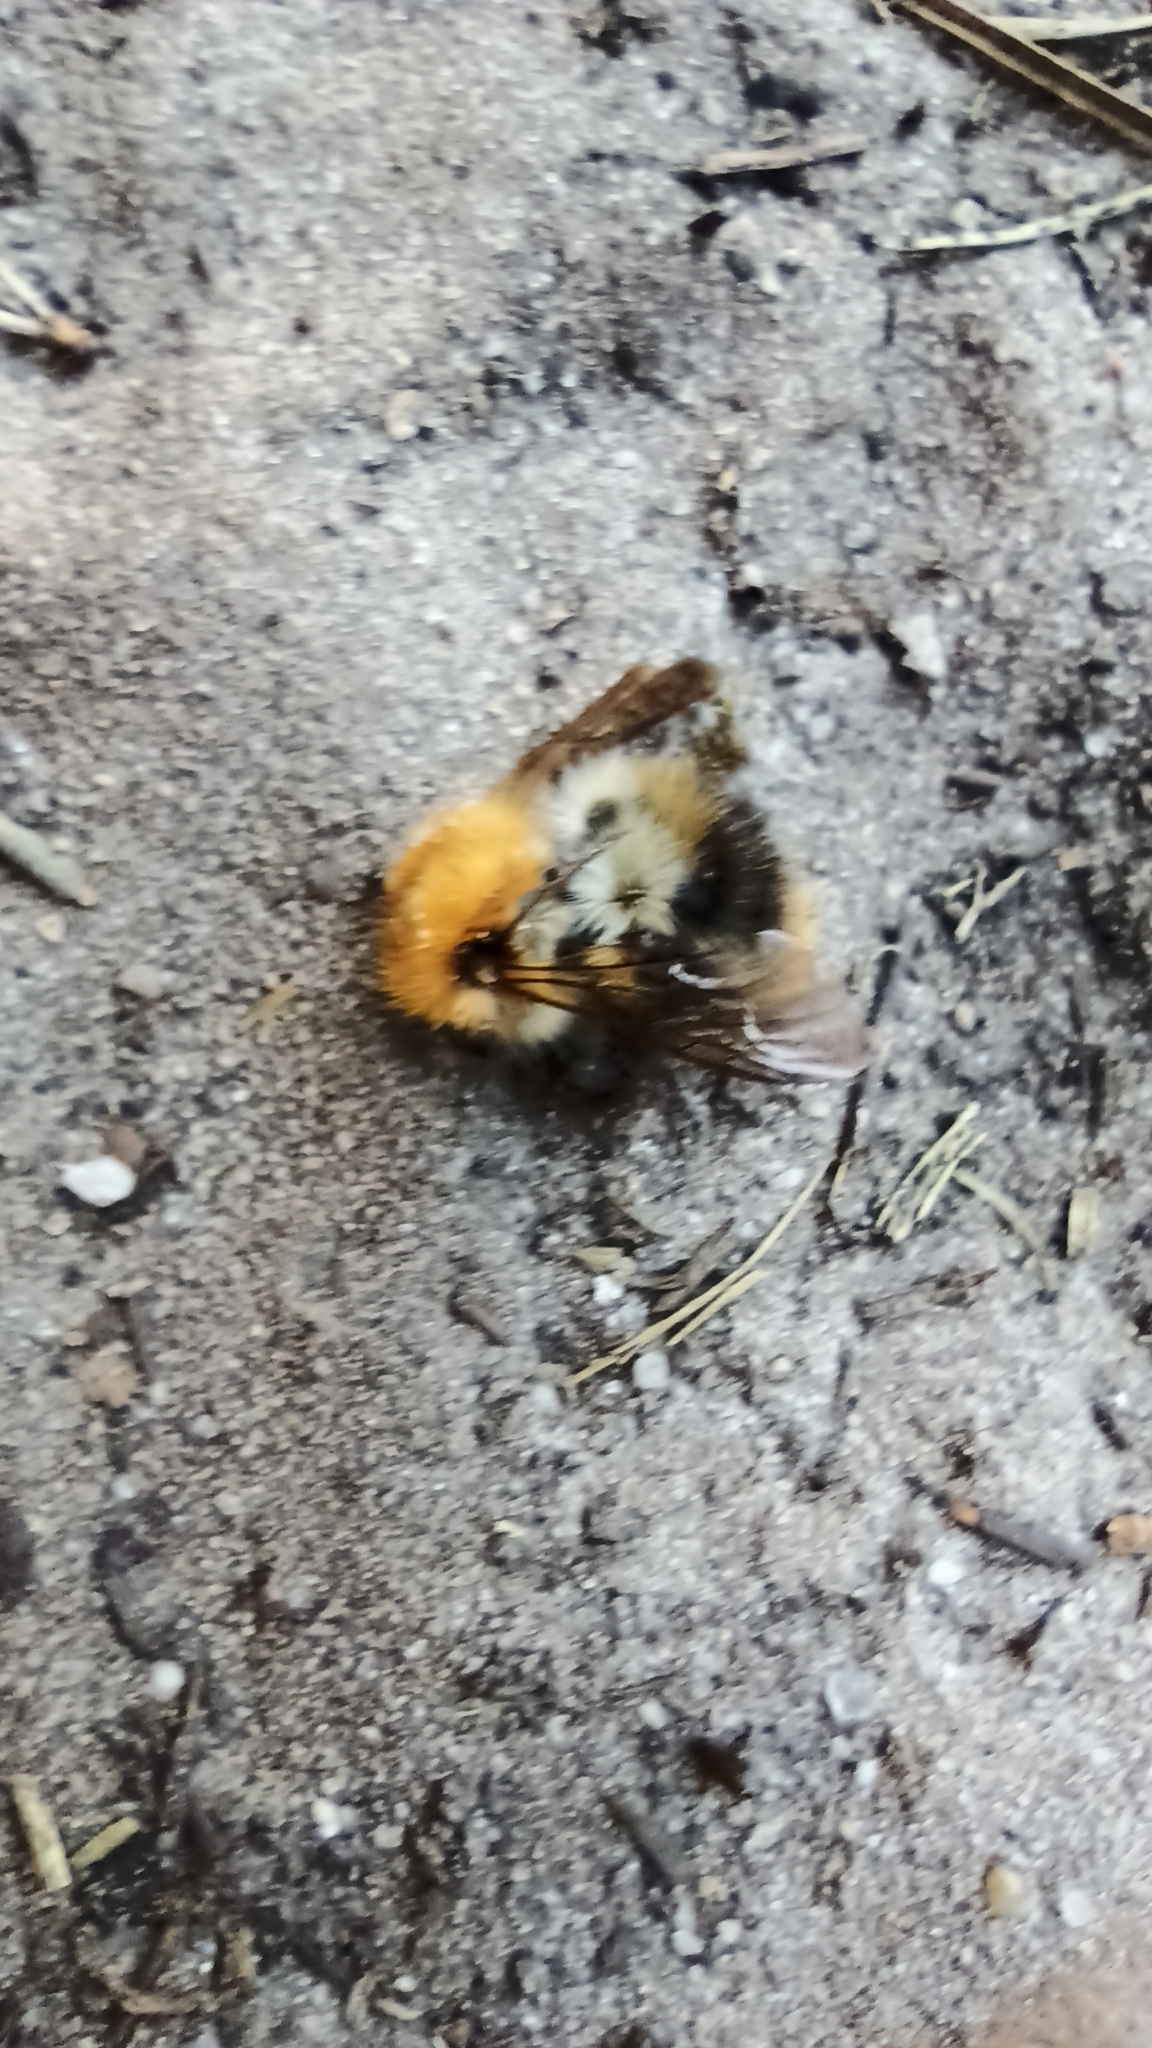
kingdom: Animalia
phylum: Arthropoda
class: Insecta
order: Hymenoptera
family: Apidae
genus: Bombus
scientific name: Bombus pascuorum
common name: Common carder bee
